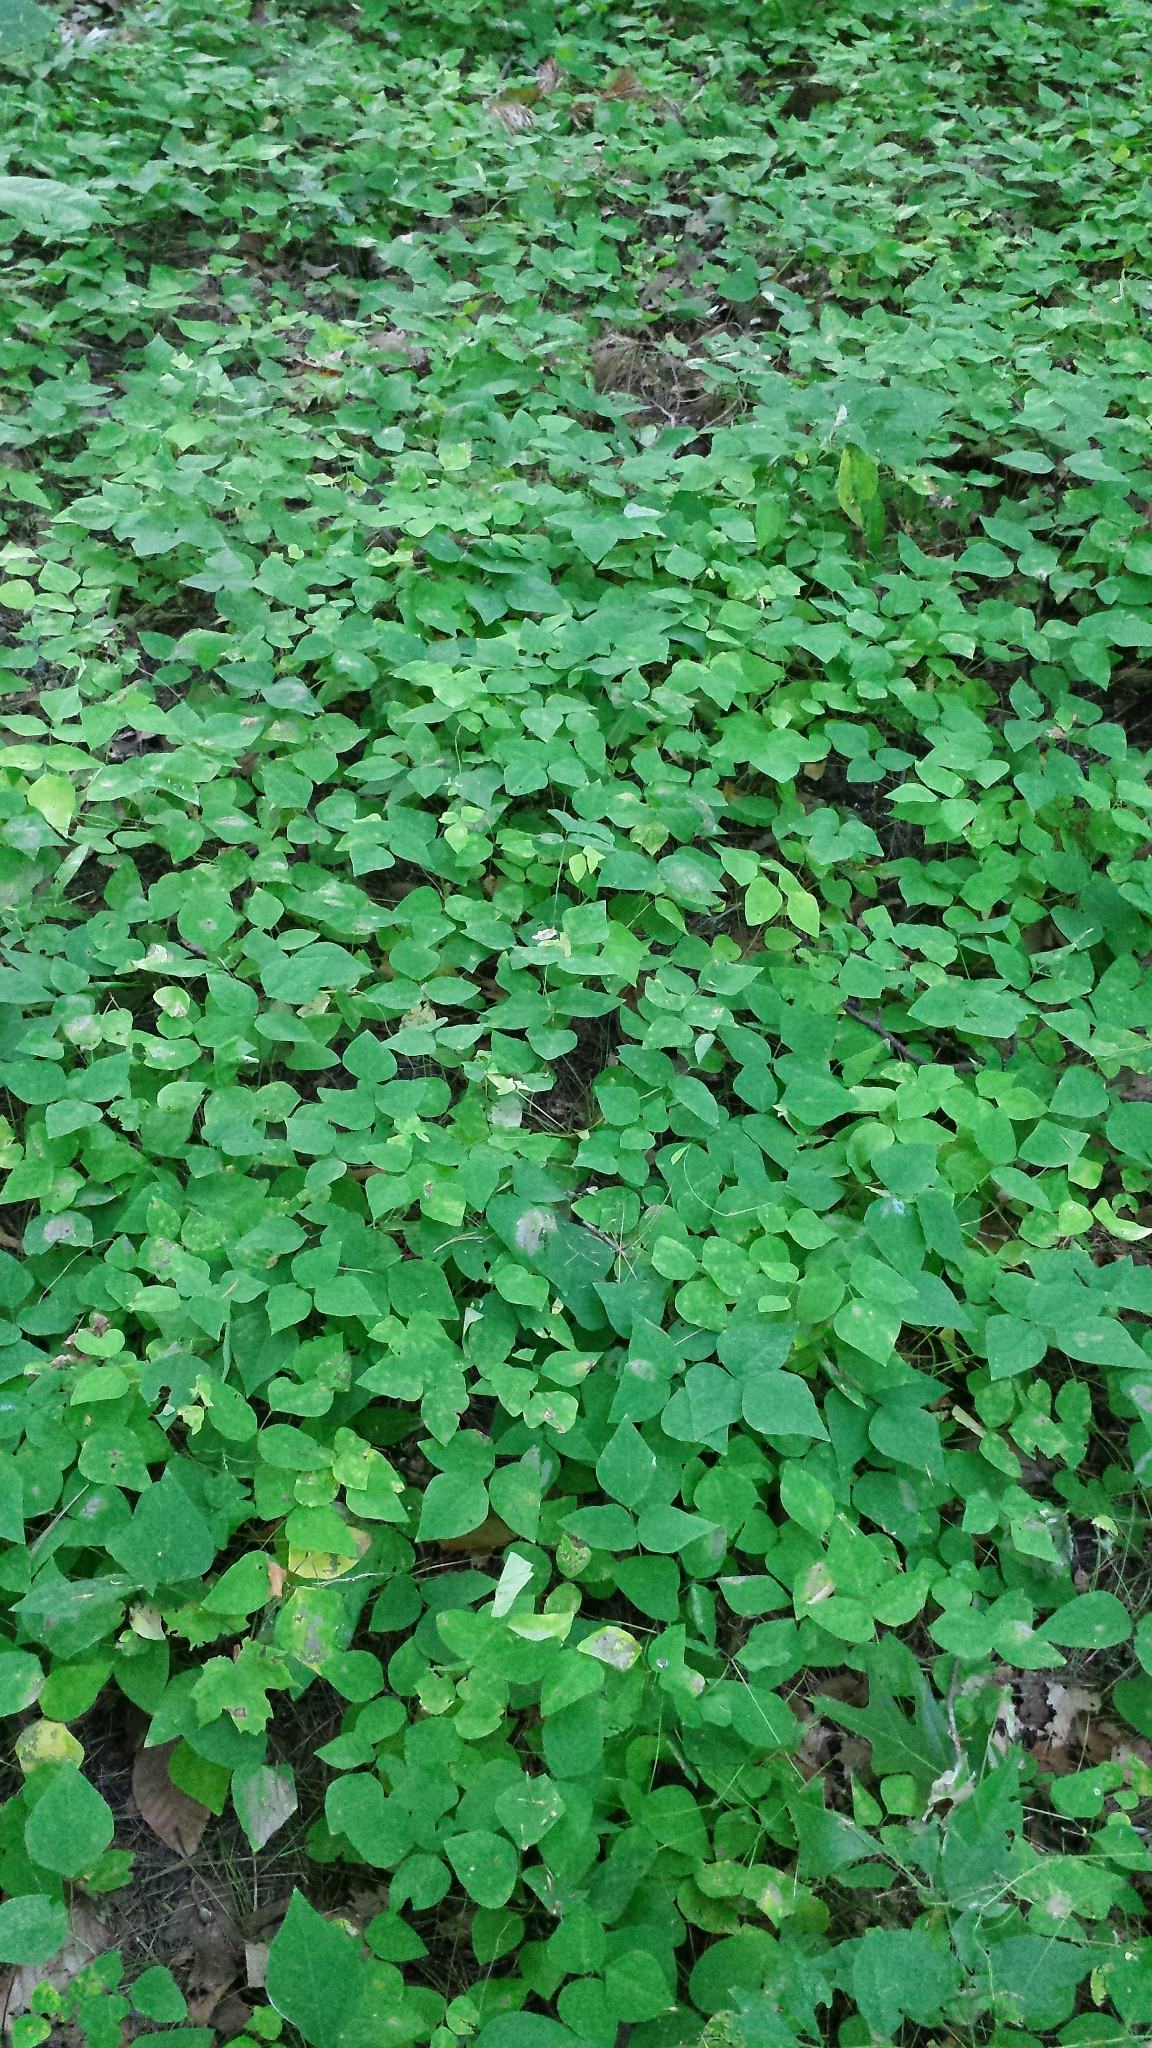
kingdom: Plantae
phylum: Tracheophyta
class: Magnoliopsida
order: Fabales
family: Fabaceae
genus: Amphicarpaea
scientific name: Amphicarpaea bracteata
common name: American hog peanut
